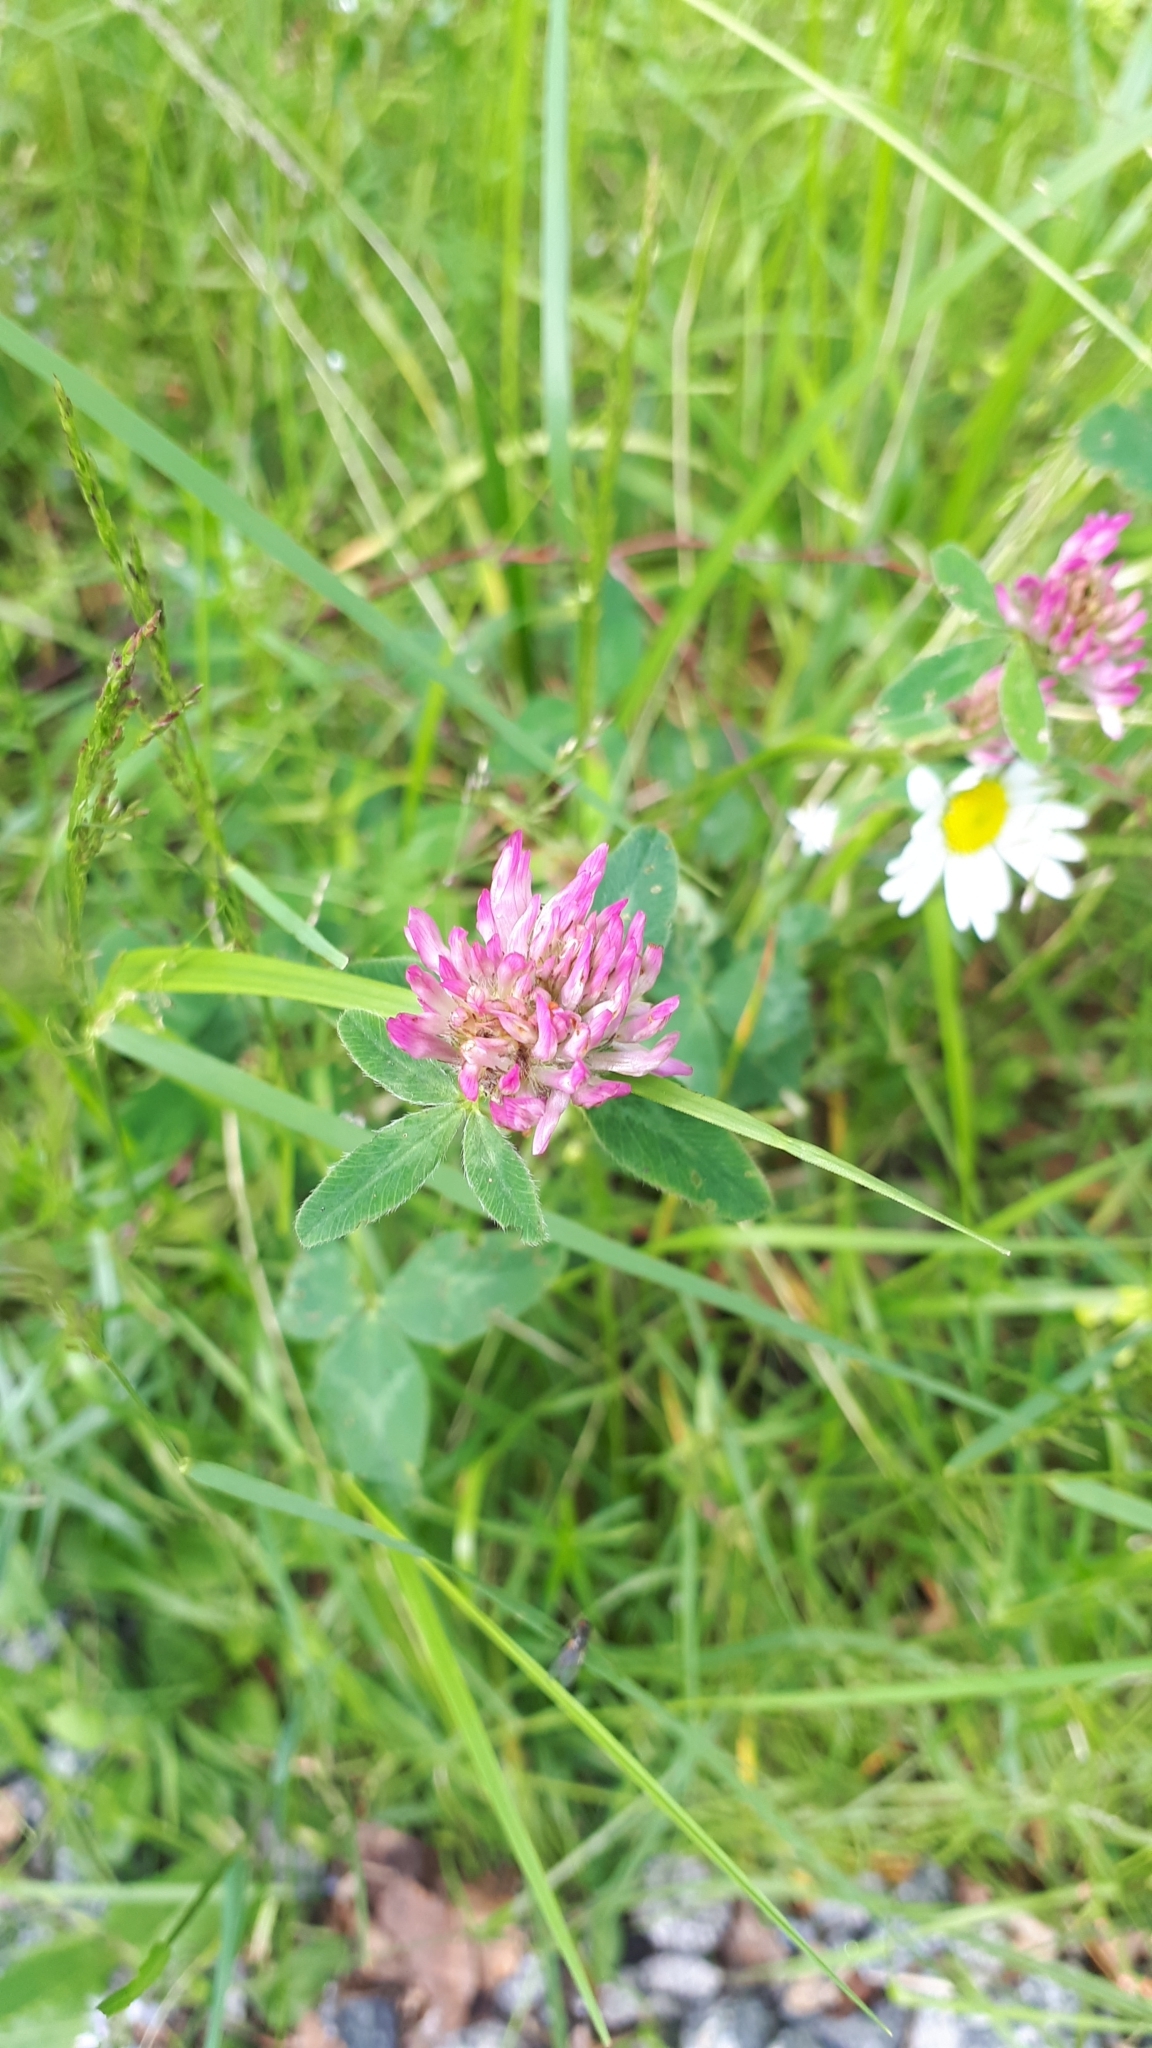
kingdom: Plantae
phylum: Tracheophyta
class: Magnoliopsida
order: Fabales
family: Fabaceae
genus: Trifolium
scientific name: Trifolium pratense
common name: Red clover
